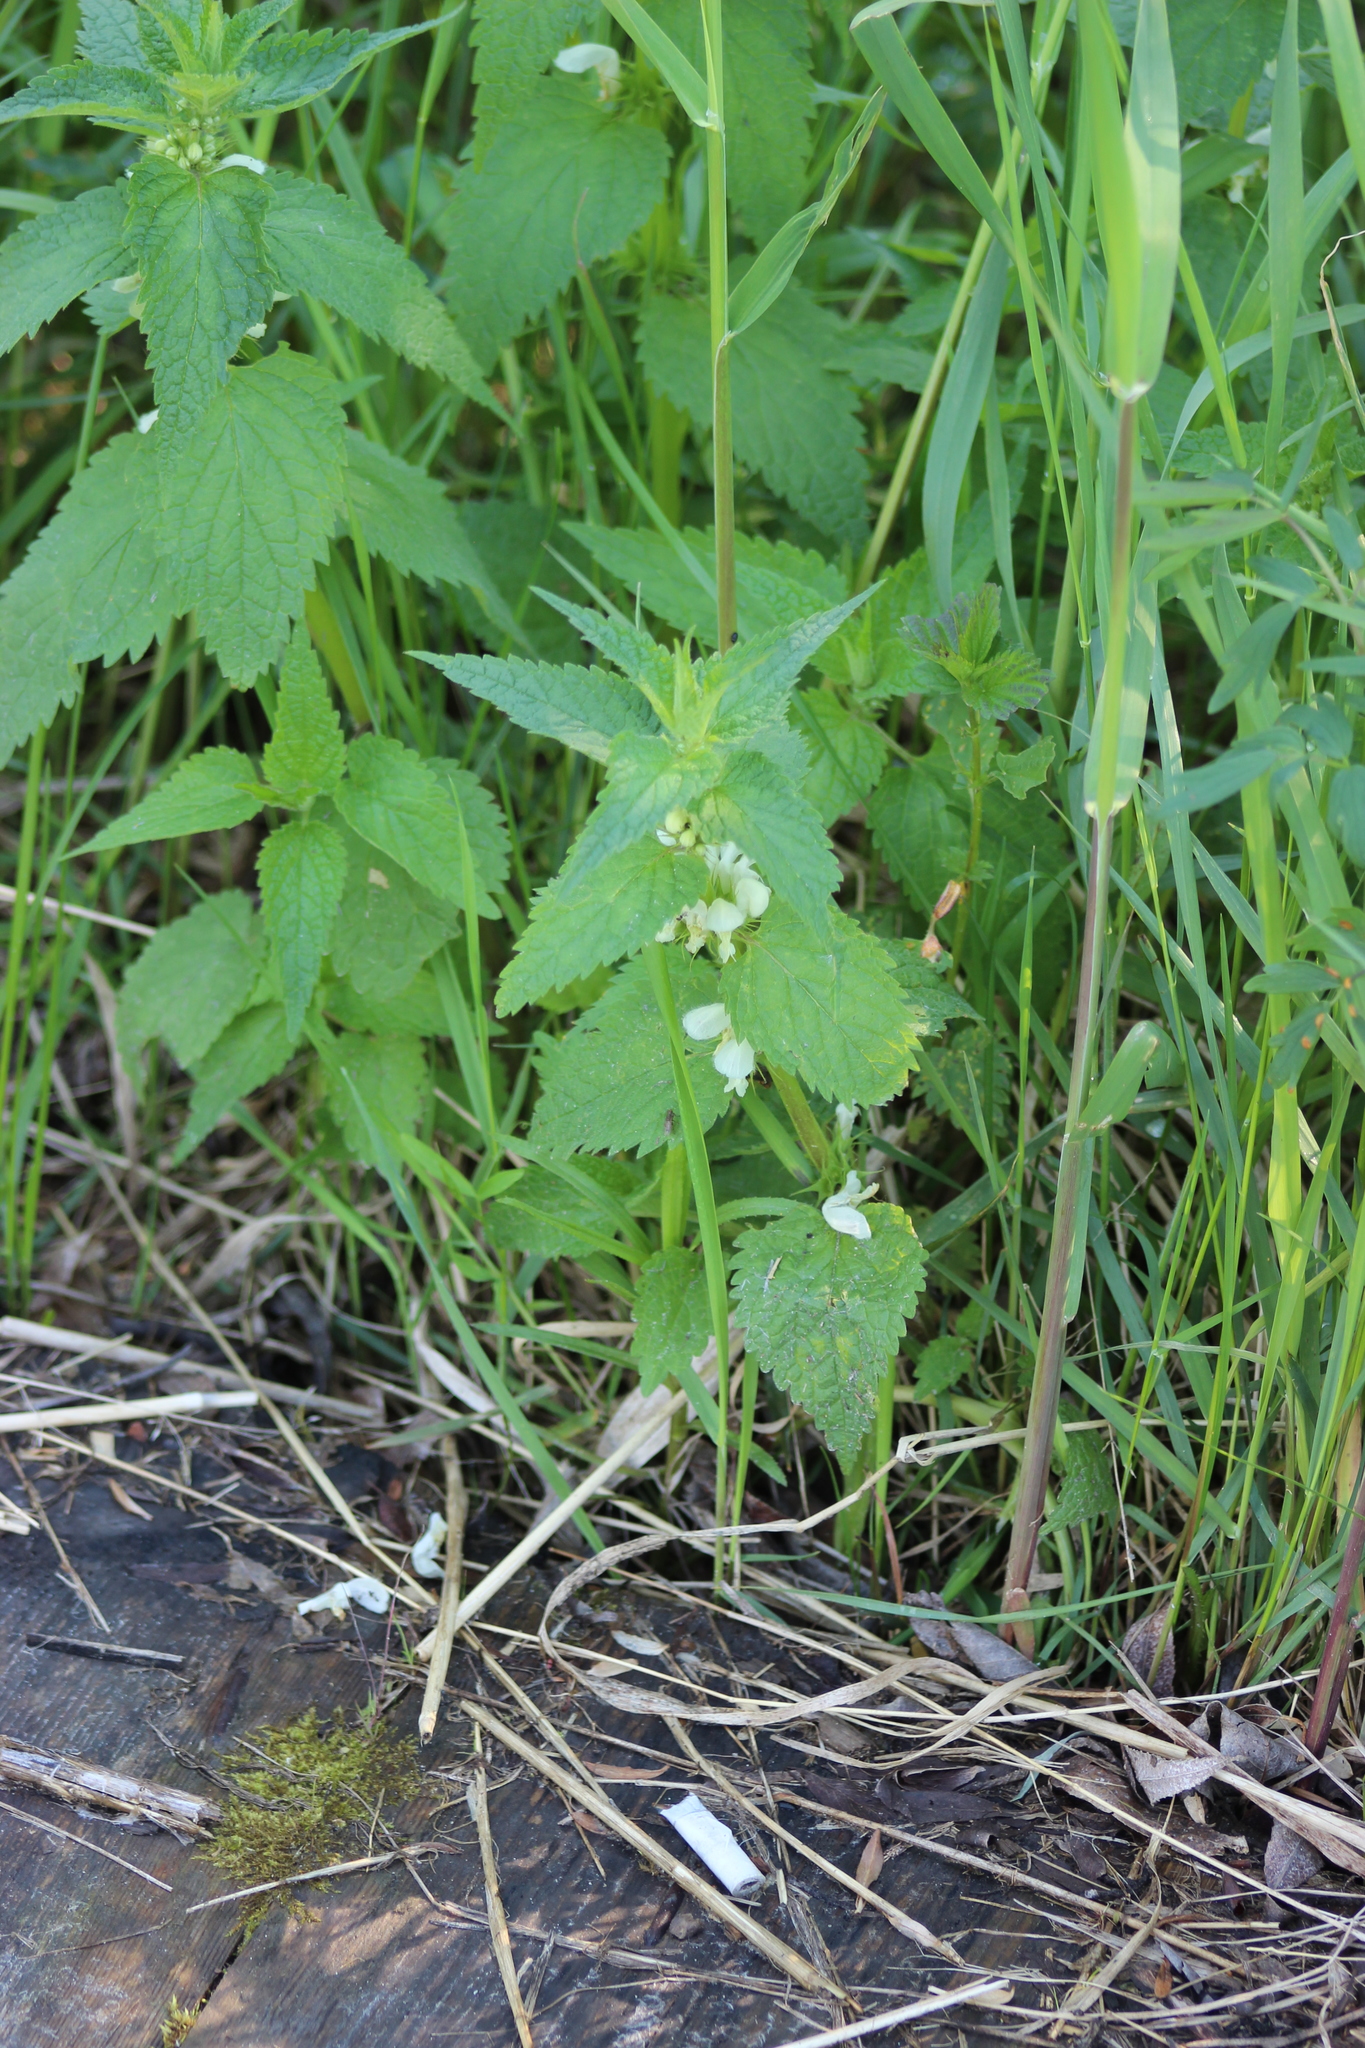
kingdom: Plantae
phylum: Tracheophyta
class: Magnoliopsida
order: Lamiales
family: Lamiaceae
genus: Lamium
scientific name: Lamium album
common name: White dead-nettle
